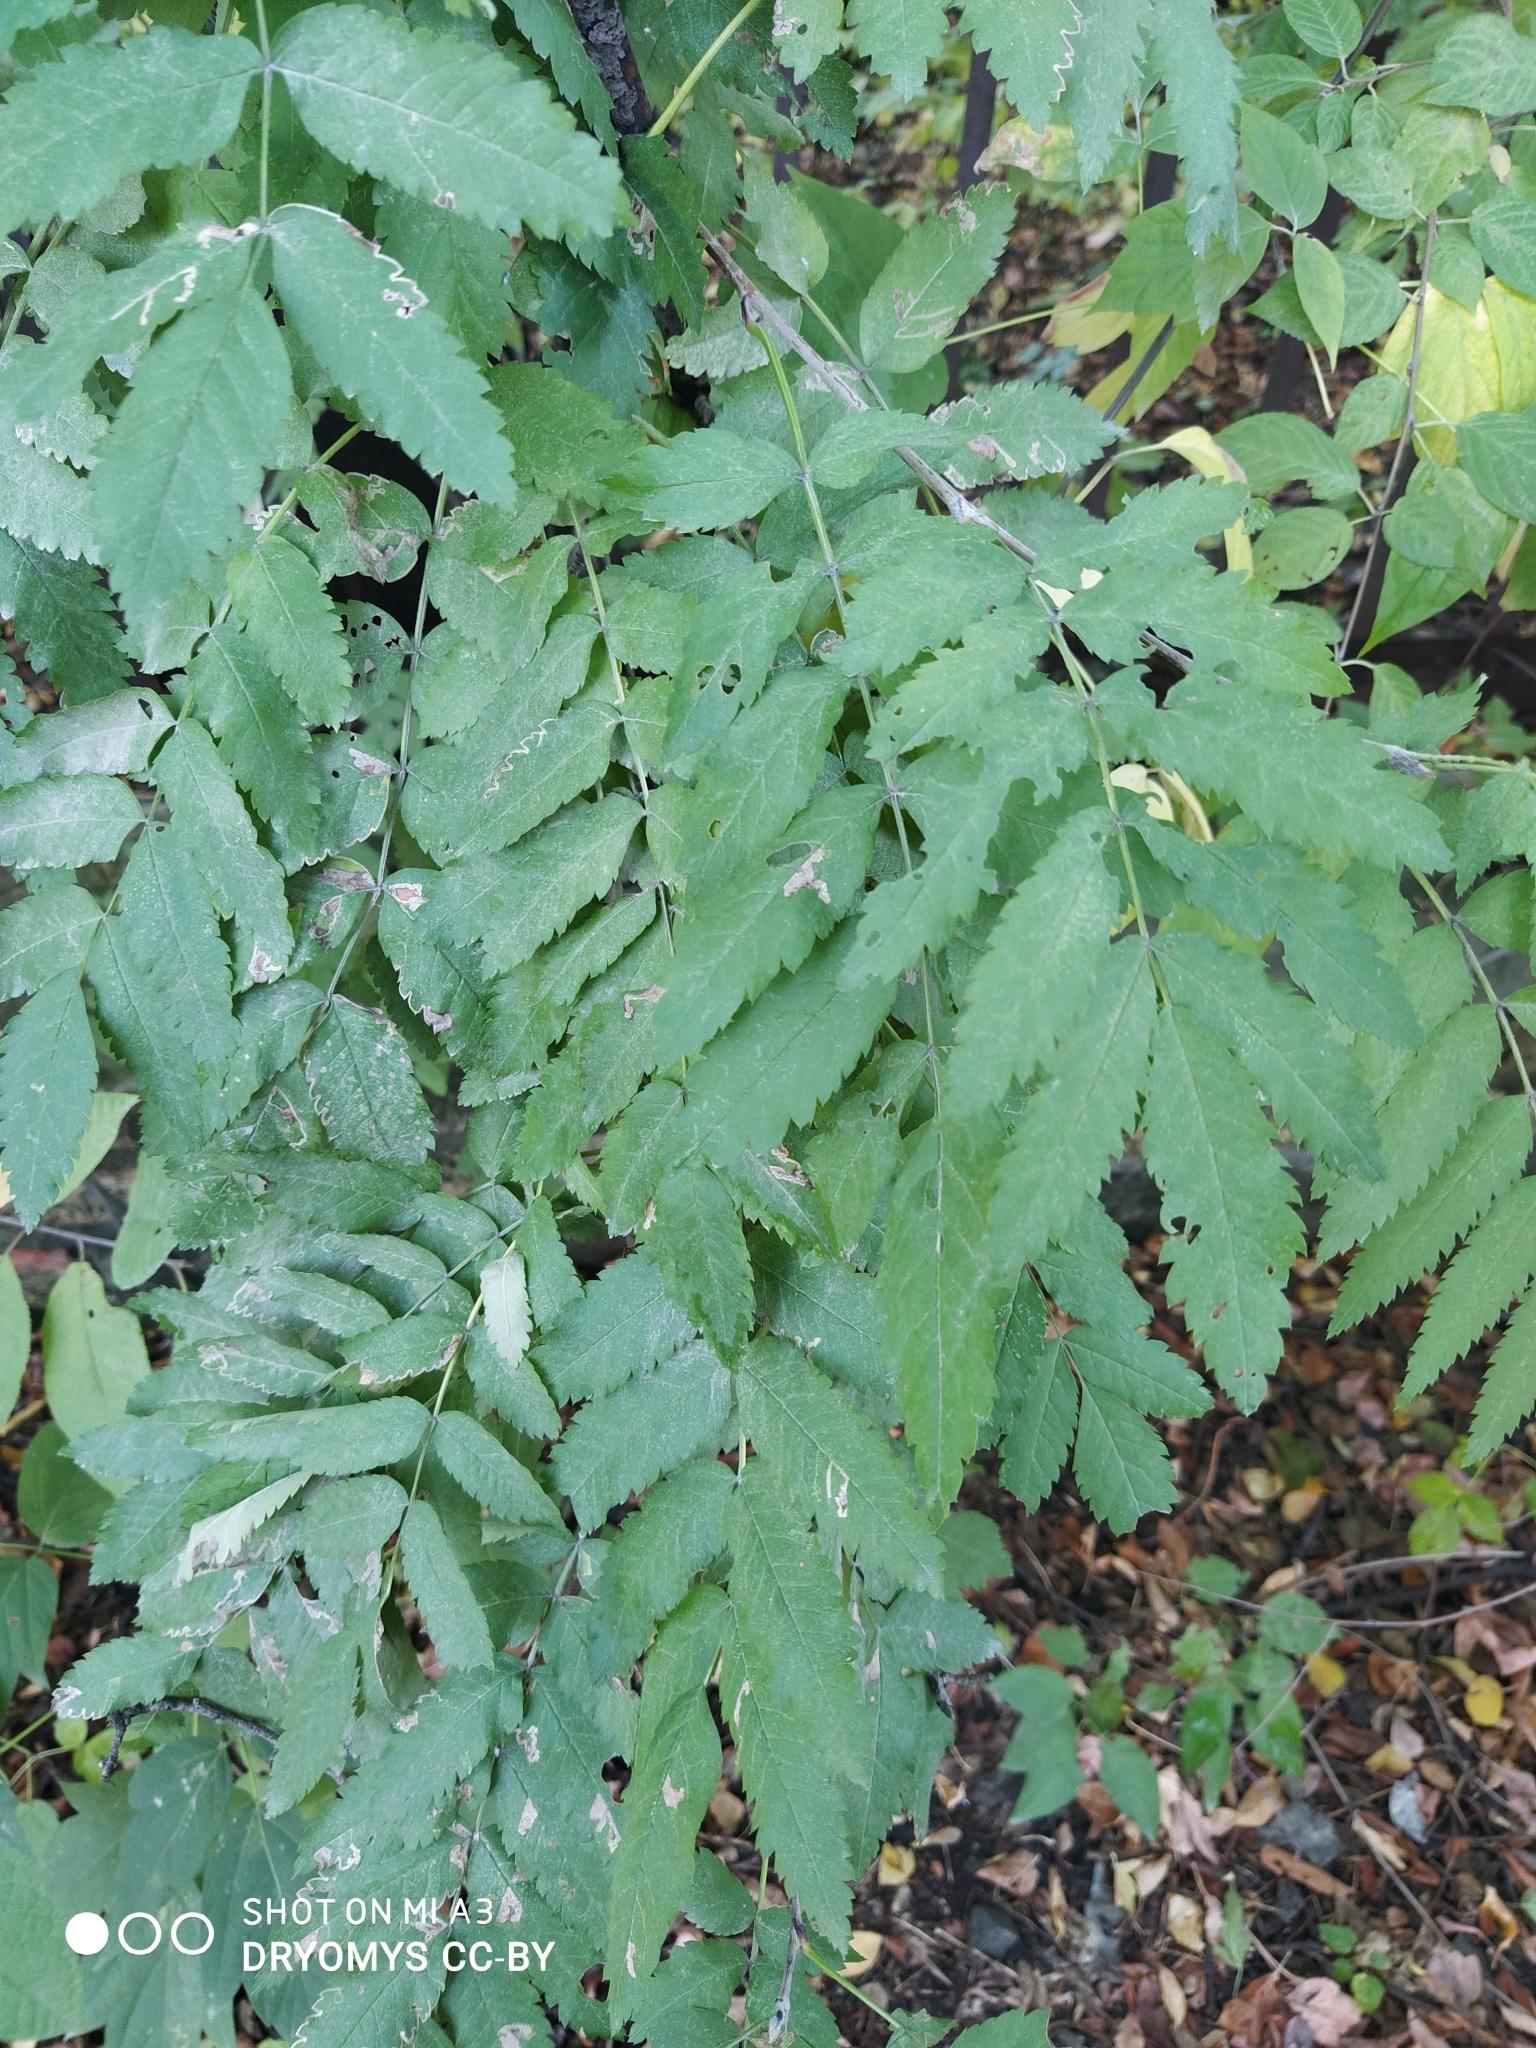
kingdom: Plantae
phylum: Tracheophyta
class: Magnoliopsida
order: Rosales
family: Rosaceae
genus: Sorbus
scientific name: Sorbus aucuparia
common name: Rowan
